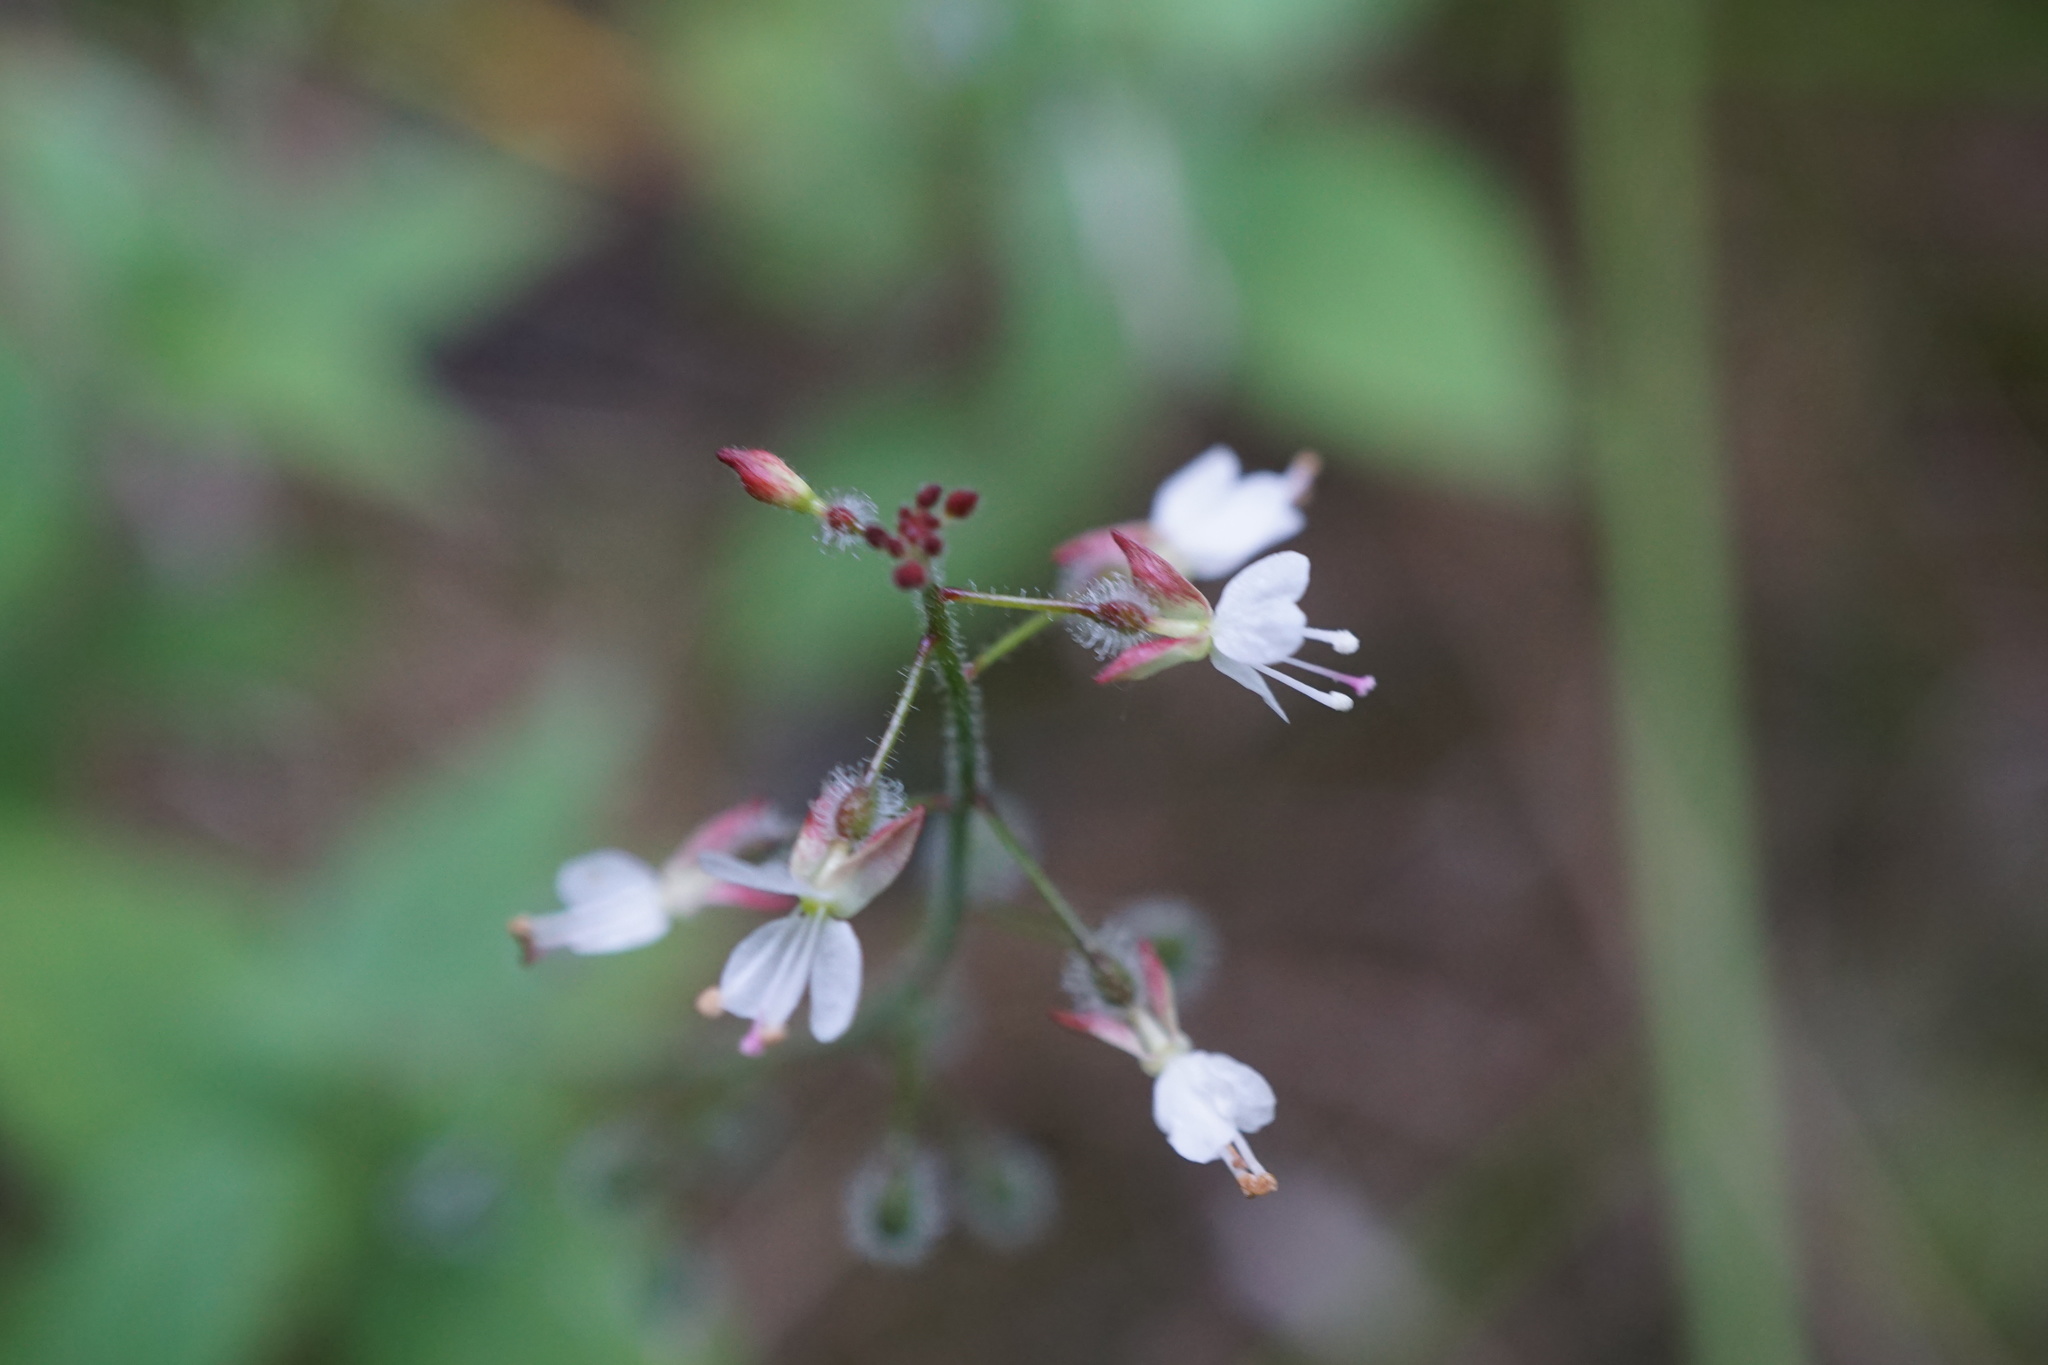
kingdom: Plantae
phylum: Tracheophyta
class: Magnoliopsida
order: Myrtales
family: Onagraceae
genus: Circaea
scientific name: Circaea lutetiana
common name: Enchanter's-nightshade
